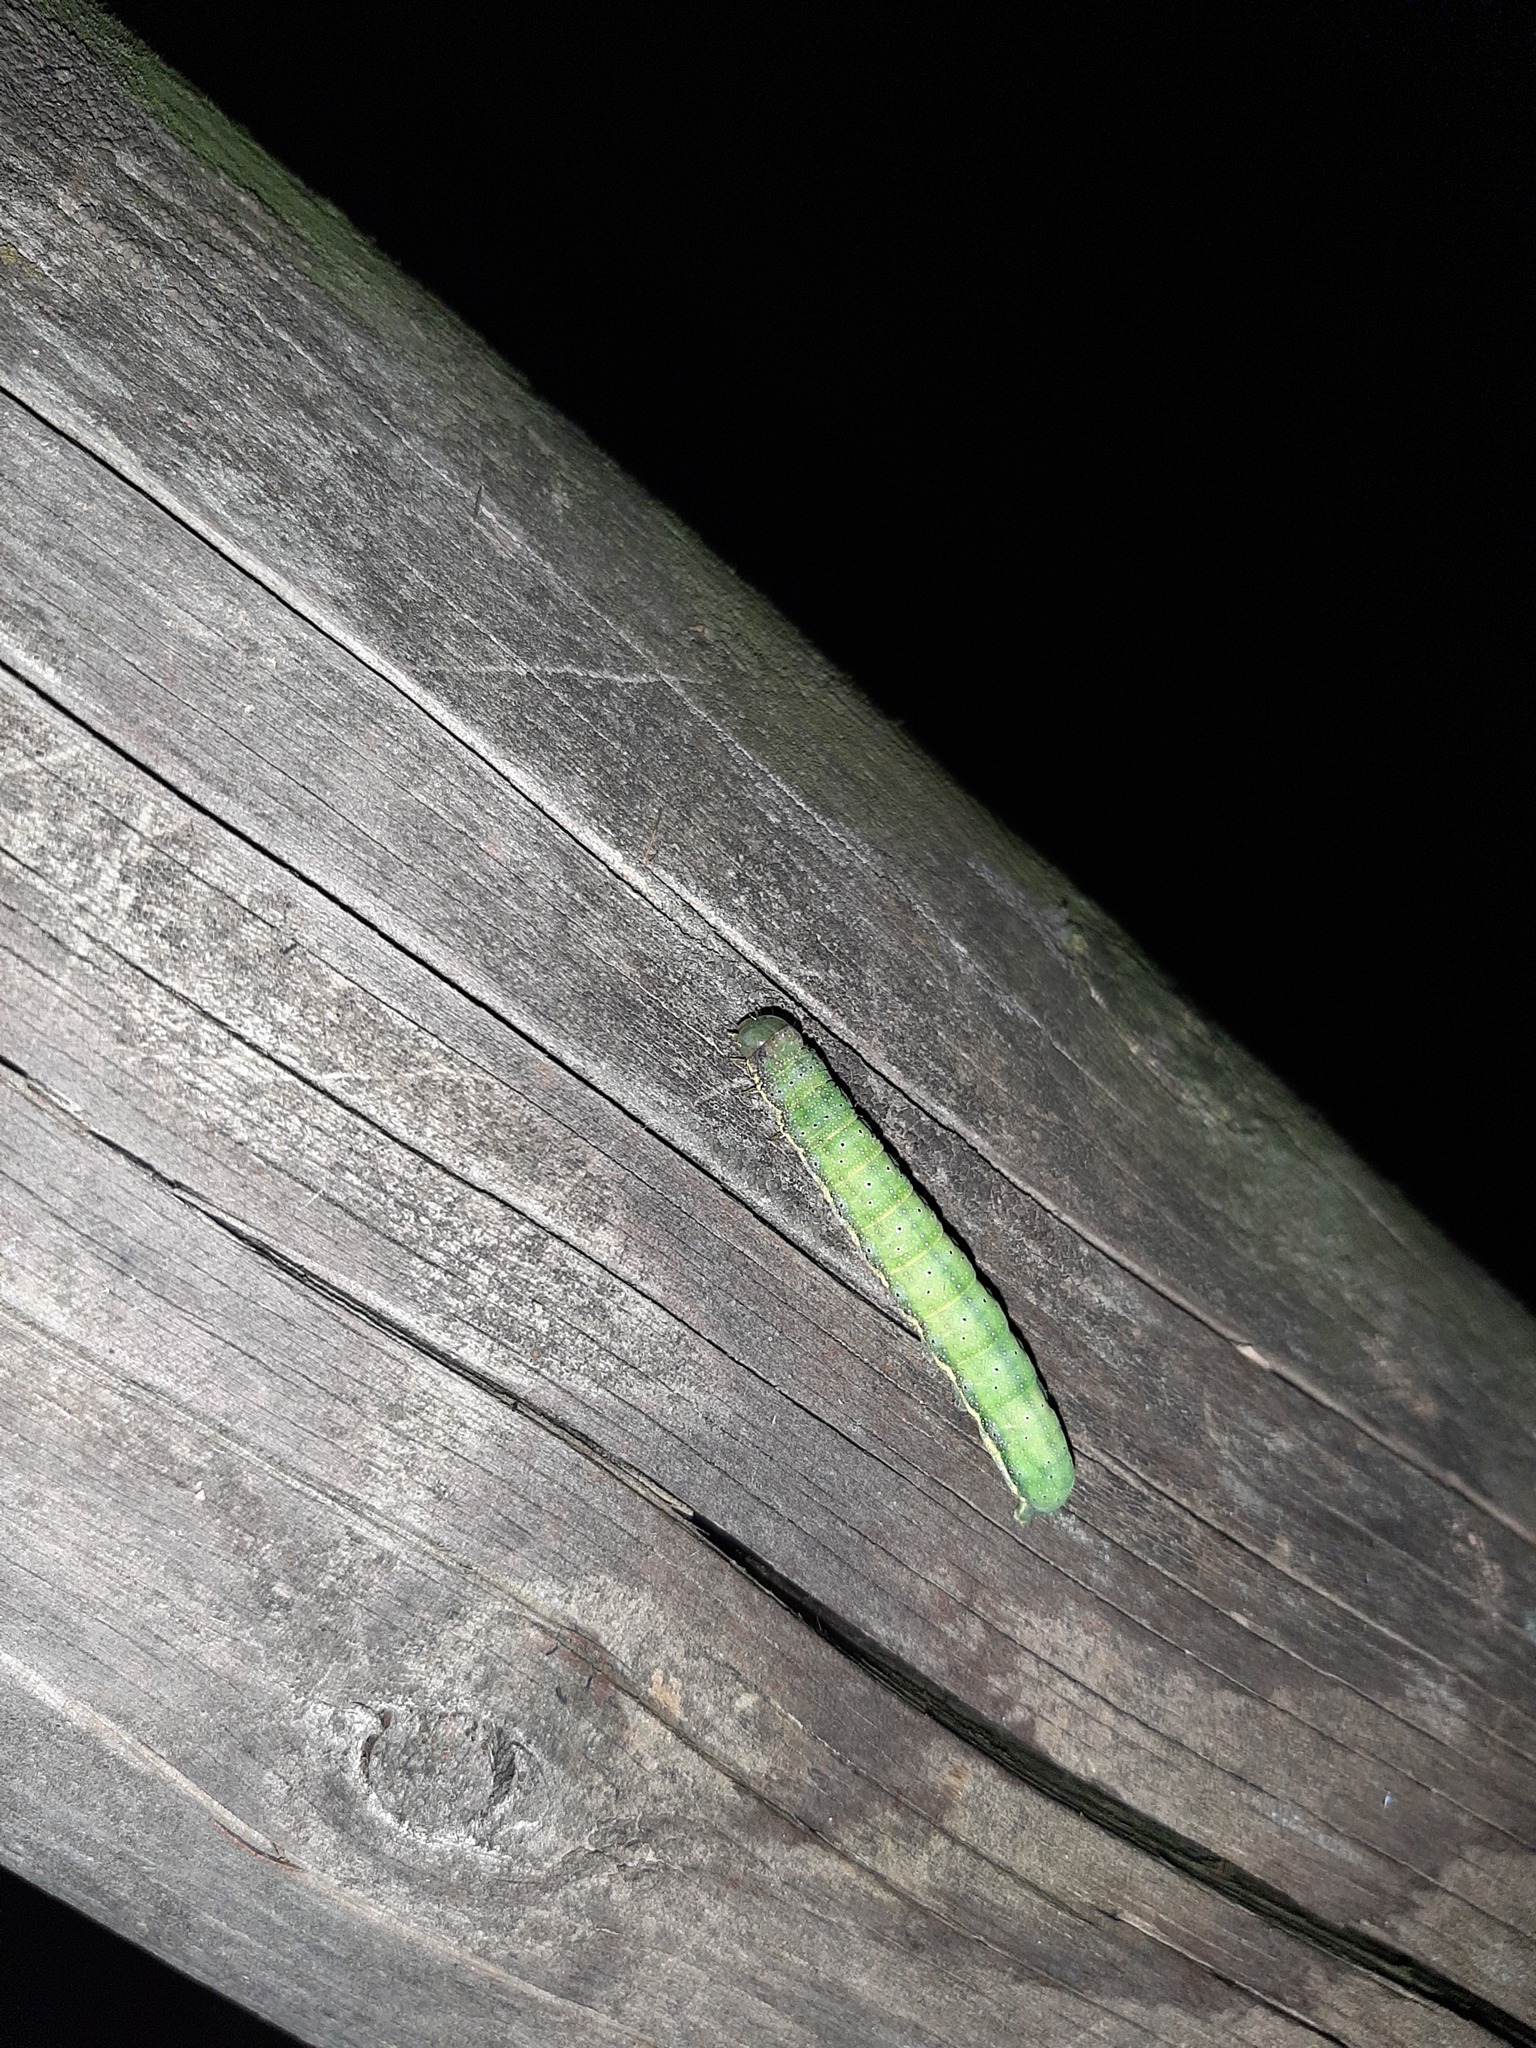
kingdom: Animalia
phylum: Arthropoda
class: Insecta
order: Lepidoptera
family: Noctuidae
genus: Lacanobia
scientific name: Lacanobia oleracea
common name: Bright-line brown-eye
